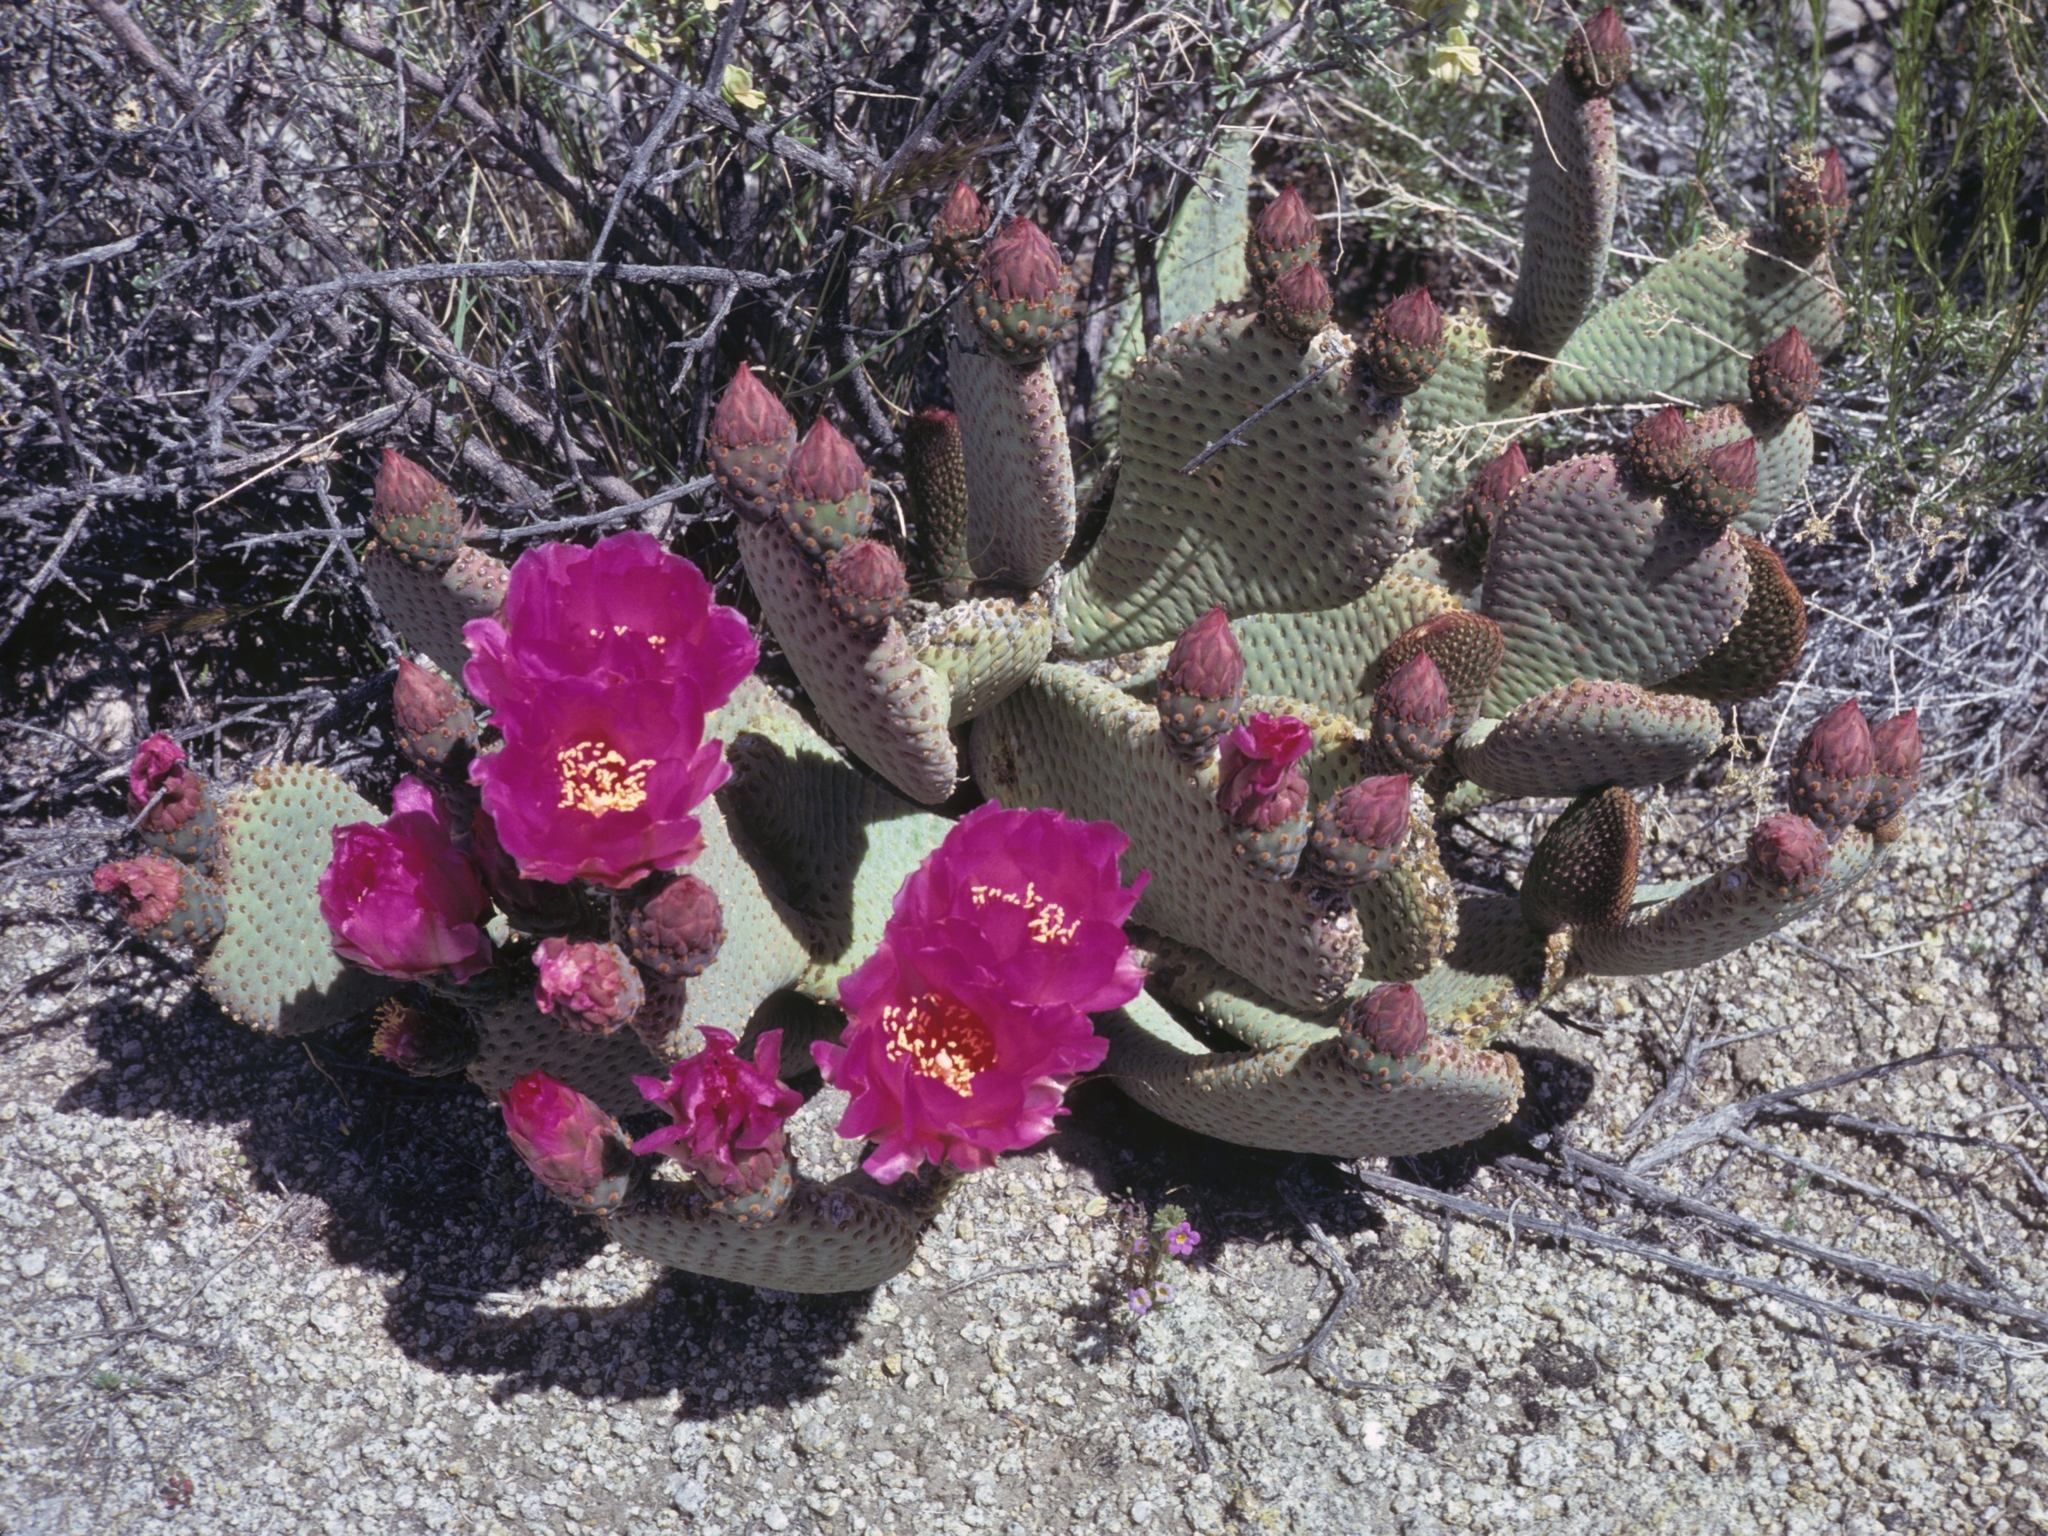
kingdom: Plantae
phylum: Tracheophyta
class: Magnoliopsida
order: Caryophyllales
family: Cactaceae
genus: Opuntia
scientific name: Opuntia basilaris
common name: Beavertail prickly-pear
